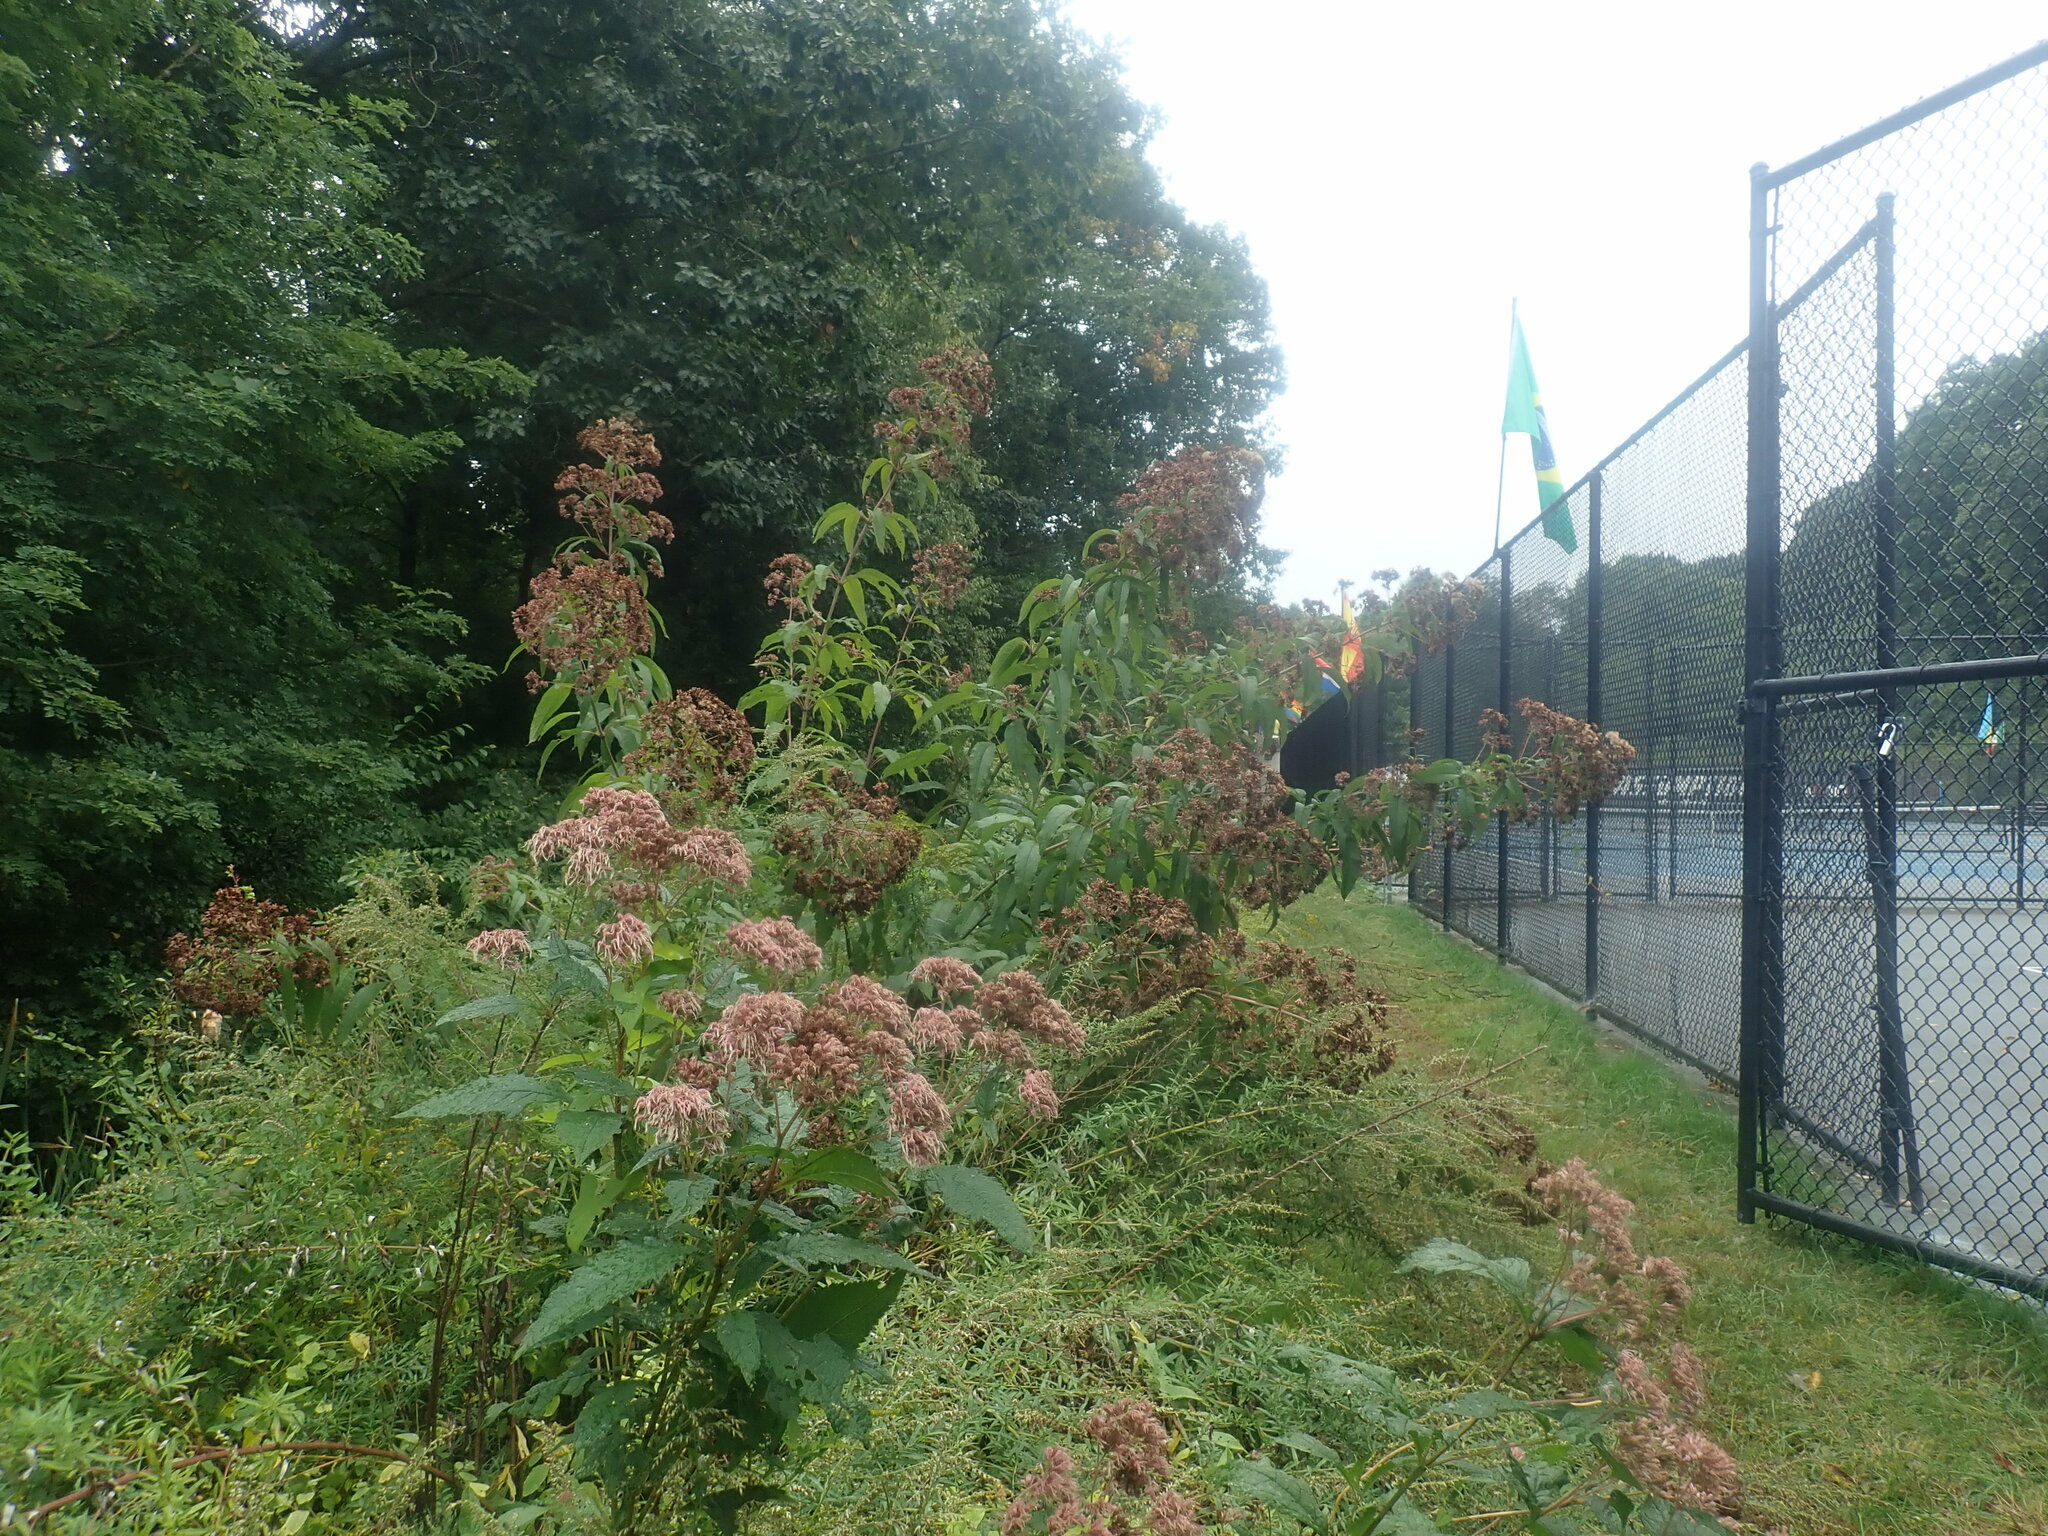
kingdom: Plantae
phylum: Tracheophyta
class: Magnoliopsida
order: Asterales
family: Asteraceae
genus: Eutrochium
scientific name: Eutrochium fistulosum
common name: Trumpetweed
